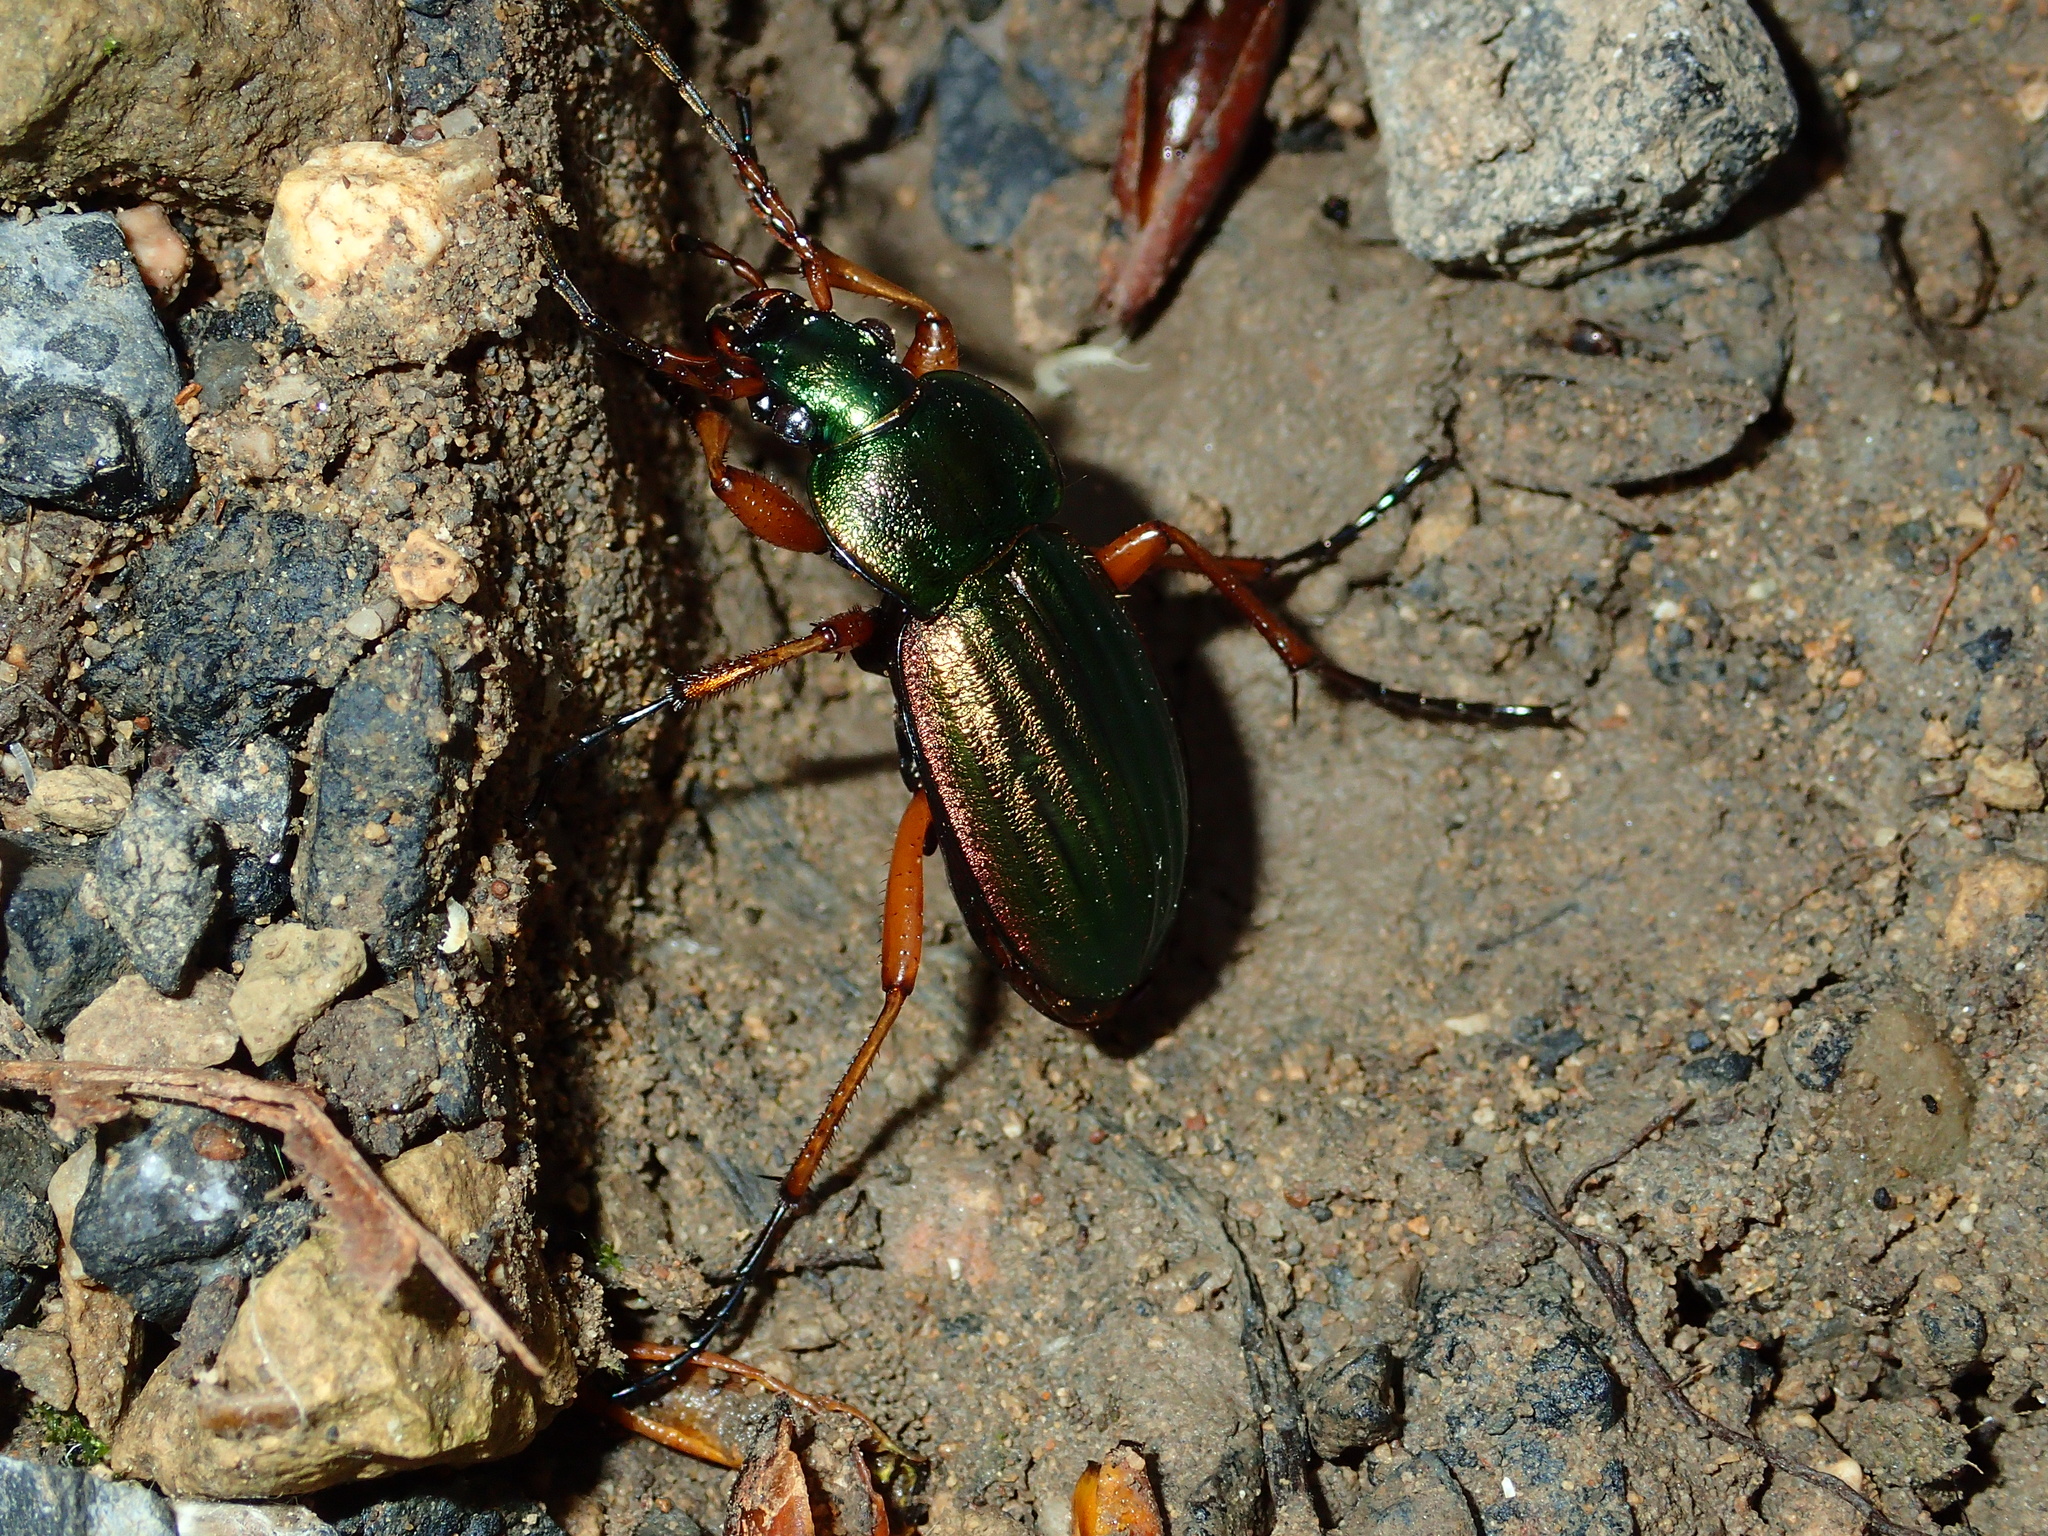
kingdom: Animalia
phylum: Arthropoda
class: Insecta
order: Coleoptera
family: Carabidae
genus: Carabus
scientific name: Carabus auratus
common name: Golden ground beetle
